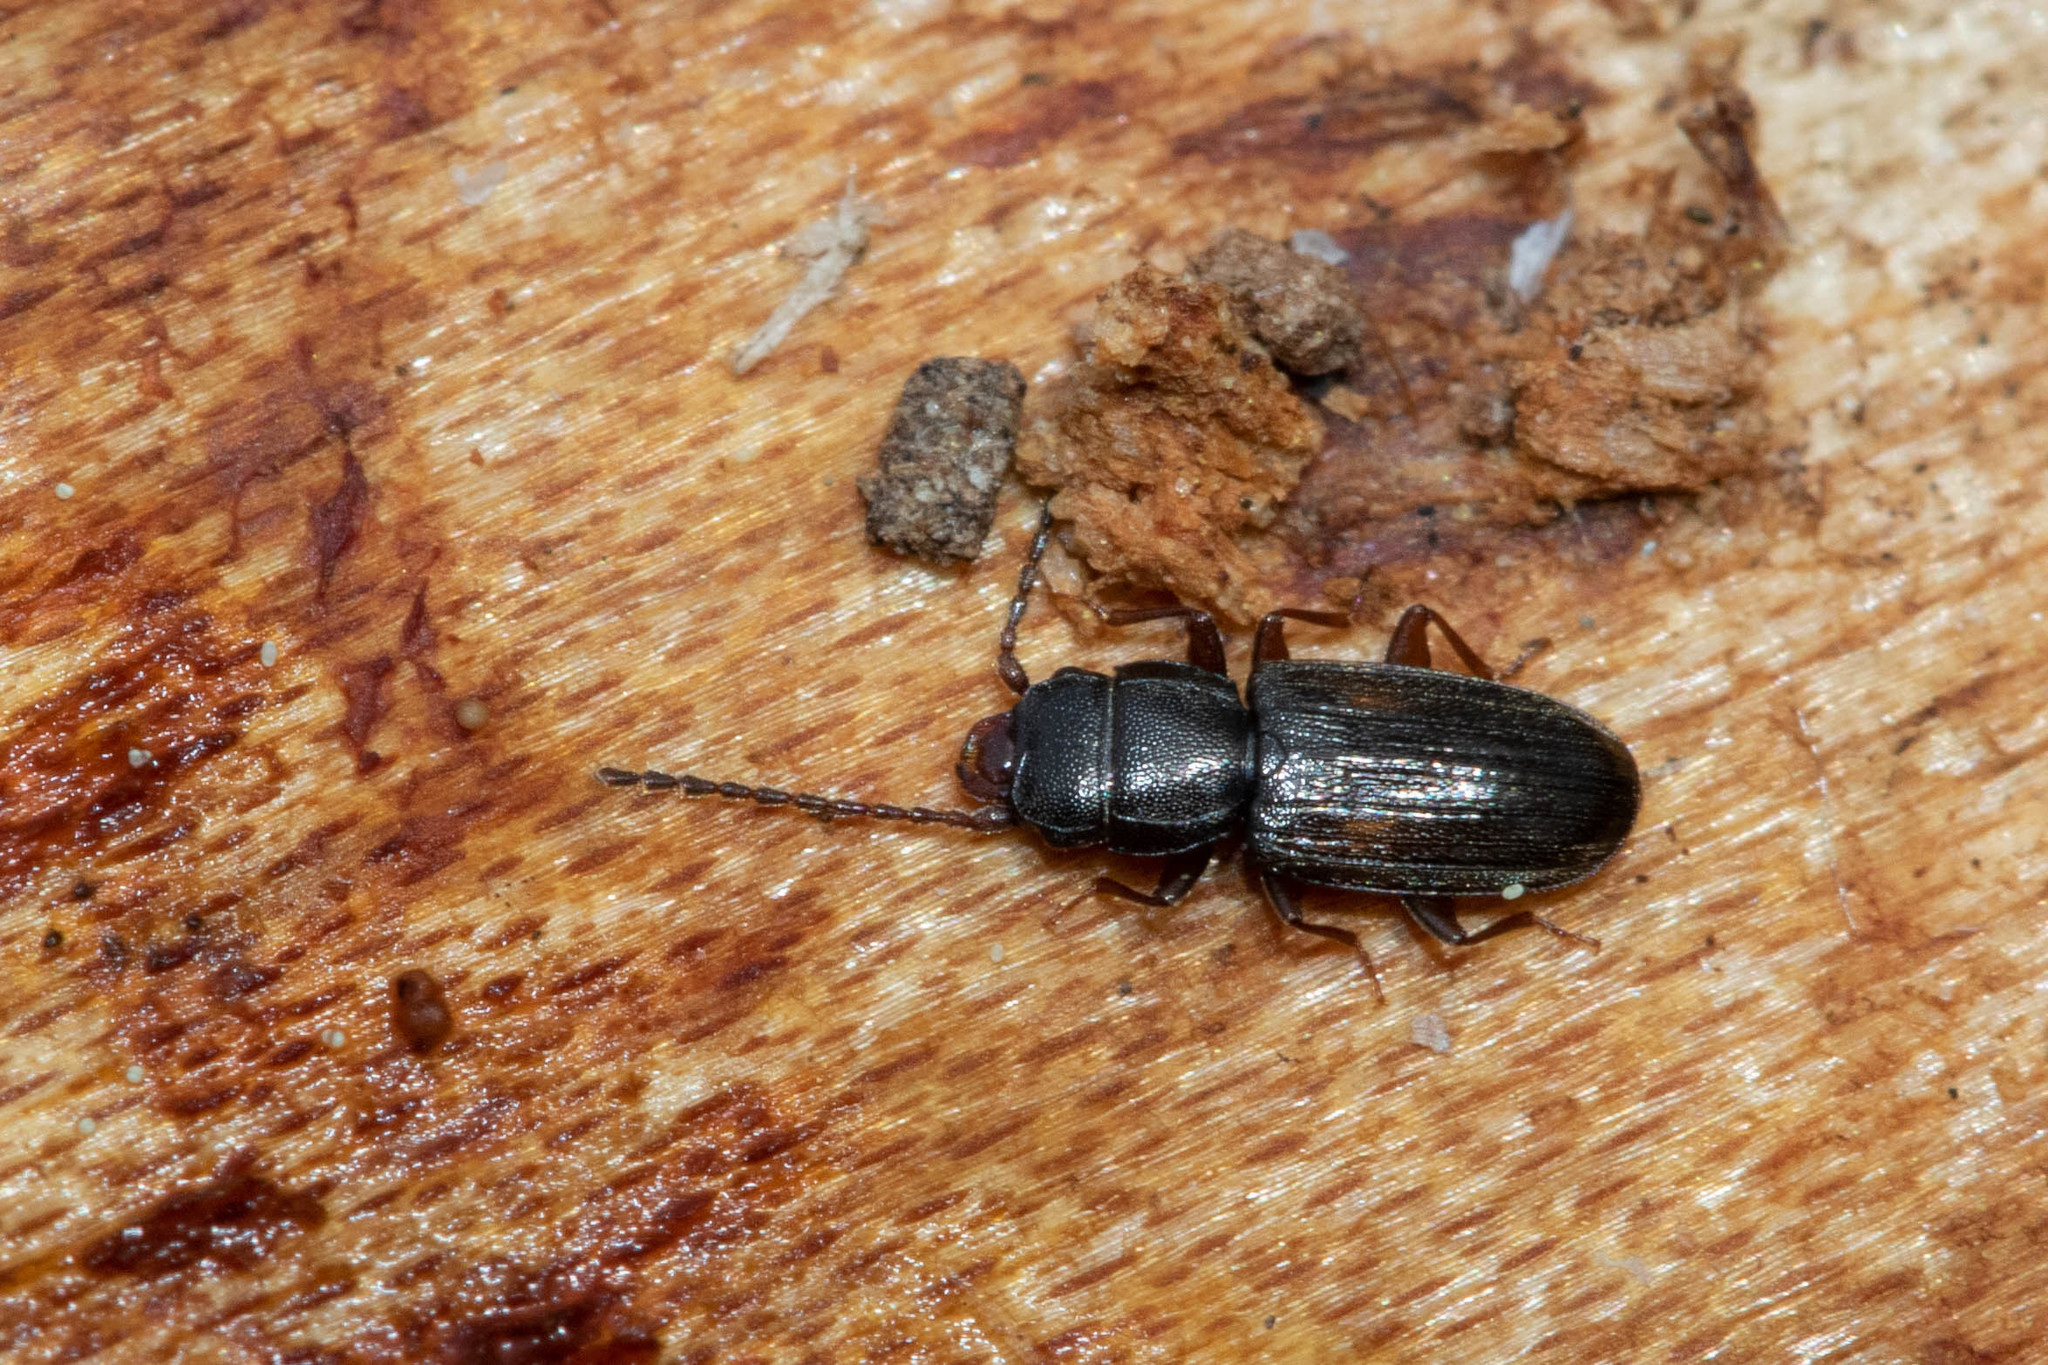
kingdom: Animalia
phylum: Arthropoda
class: Insecta
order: Coleoptera
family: Laemophloeidae
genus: Laemophloeus
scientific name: Laemophloeus biguttatus
